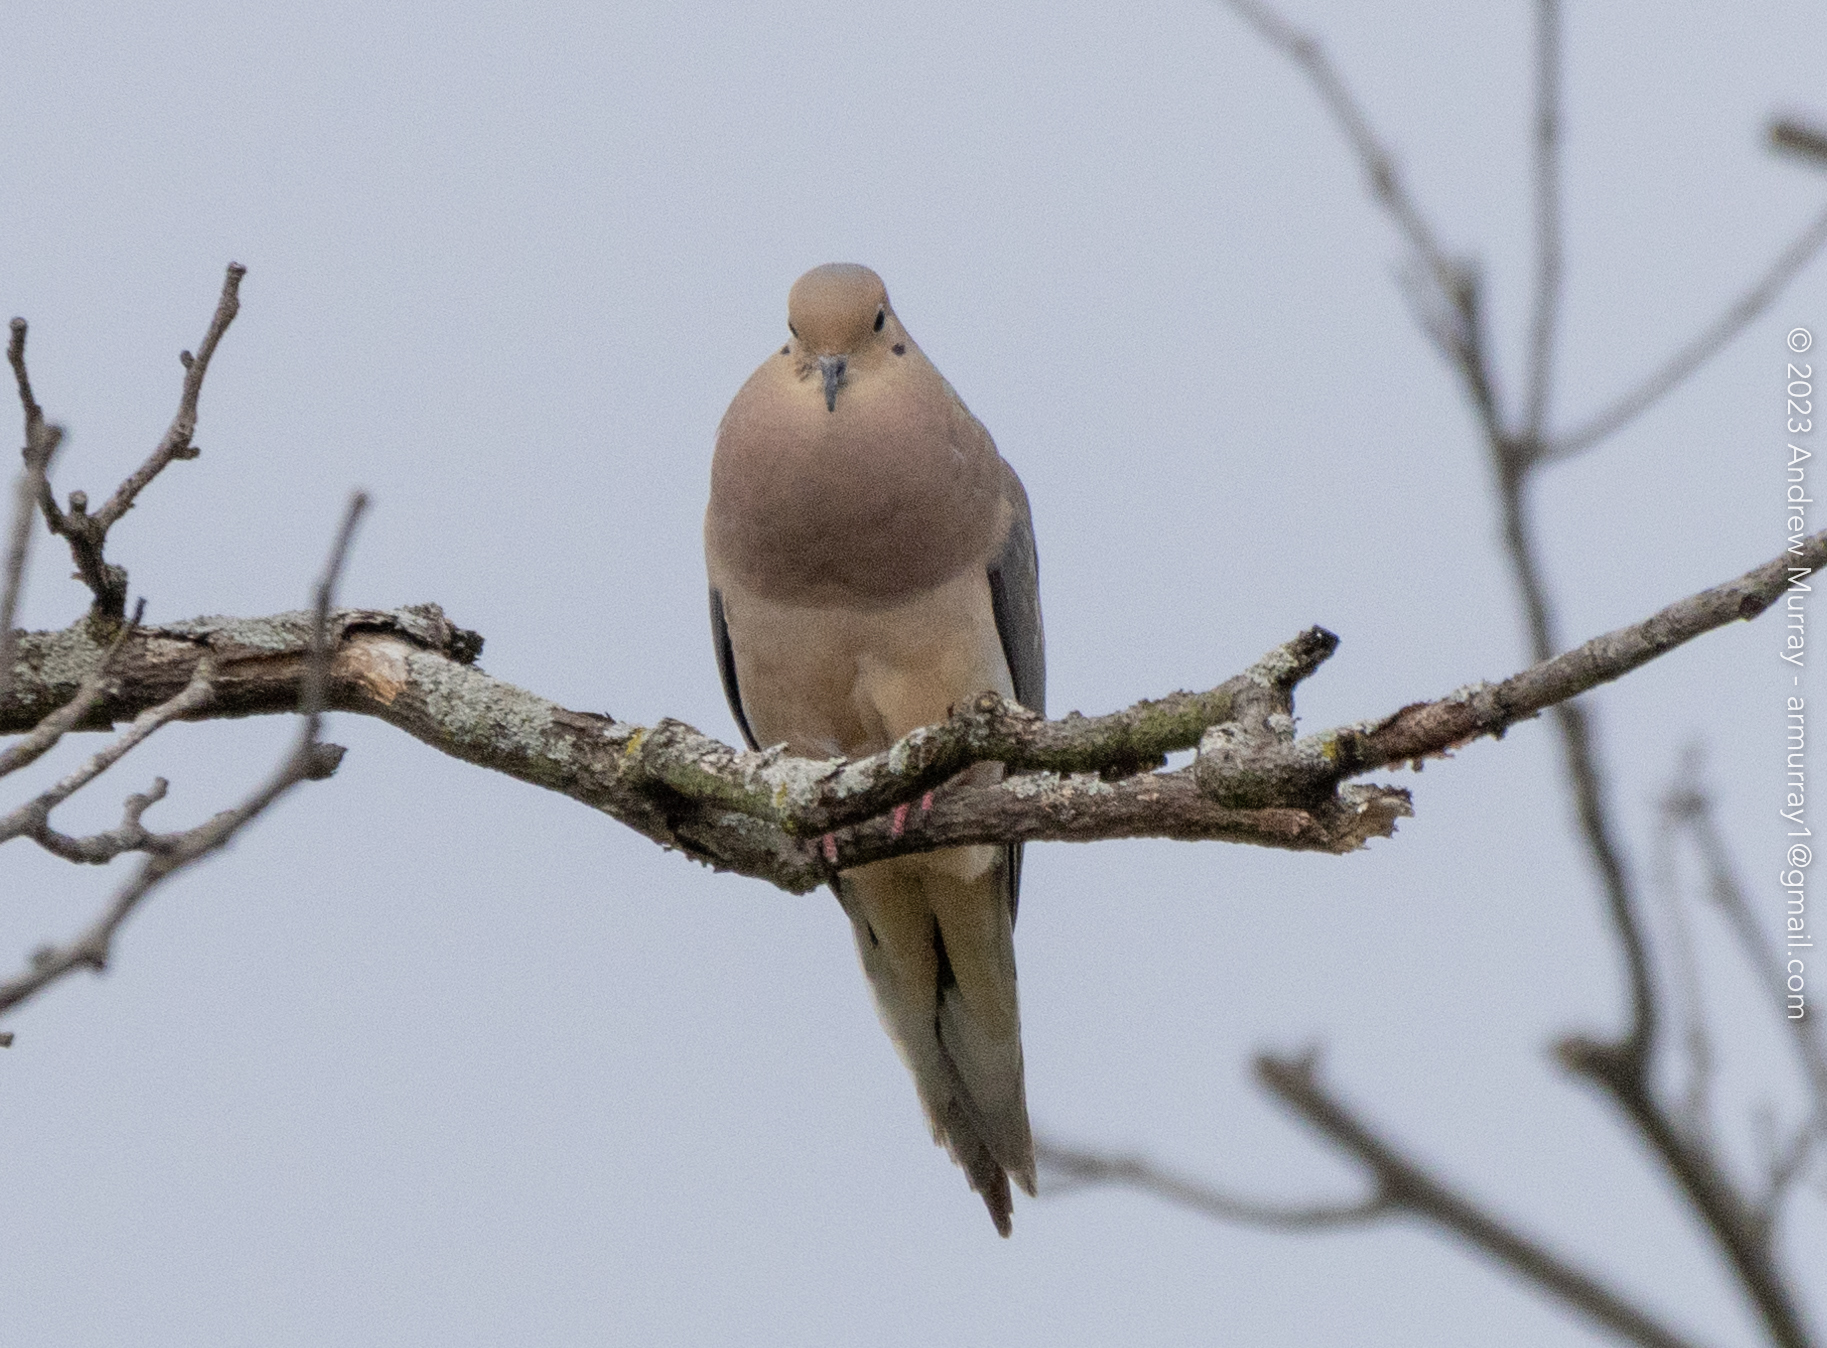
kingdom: Animalia
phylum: Chordata
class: Aves
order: Columbiformes
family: Columbidae
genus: Zenaida
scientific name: Zenaida macroura
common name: Mourning dove
